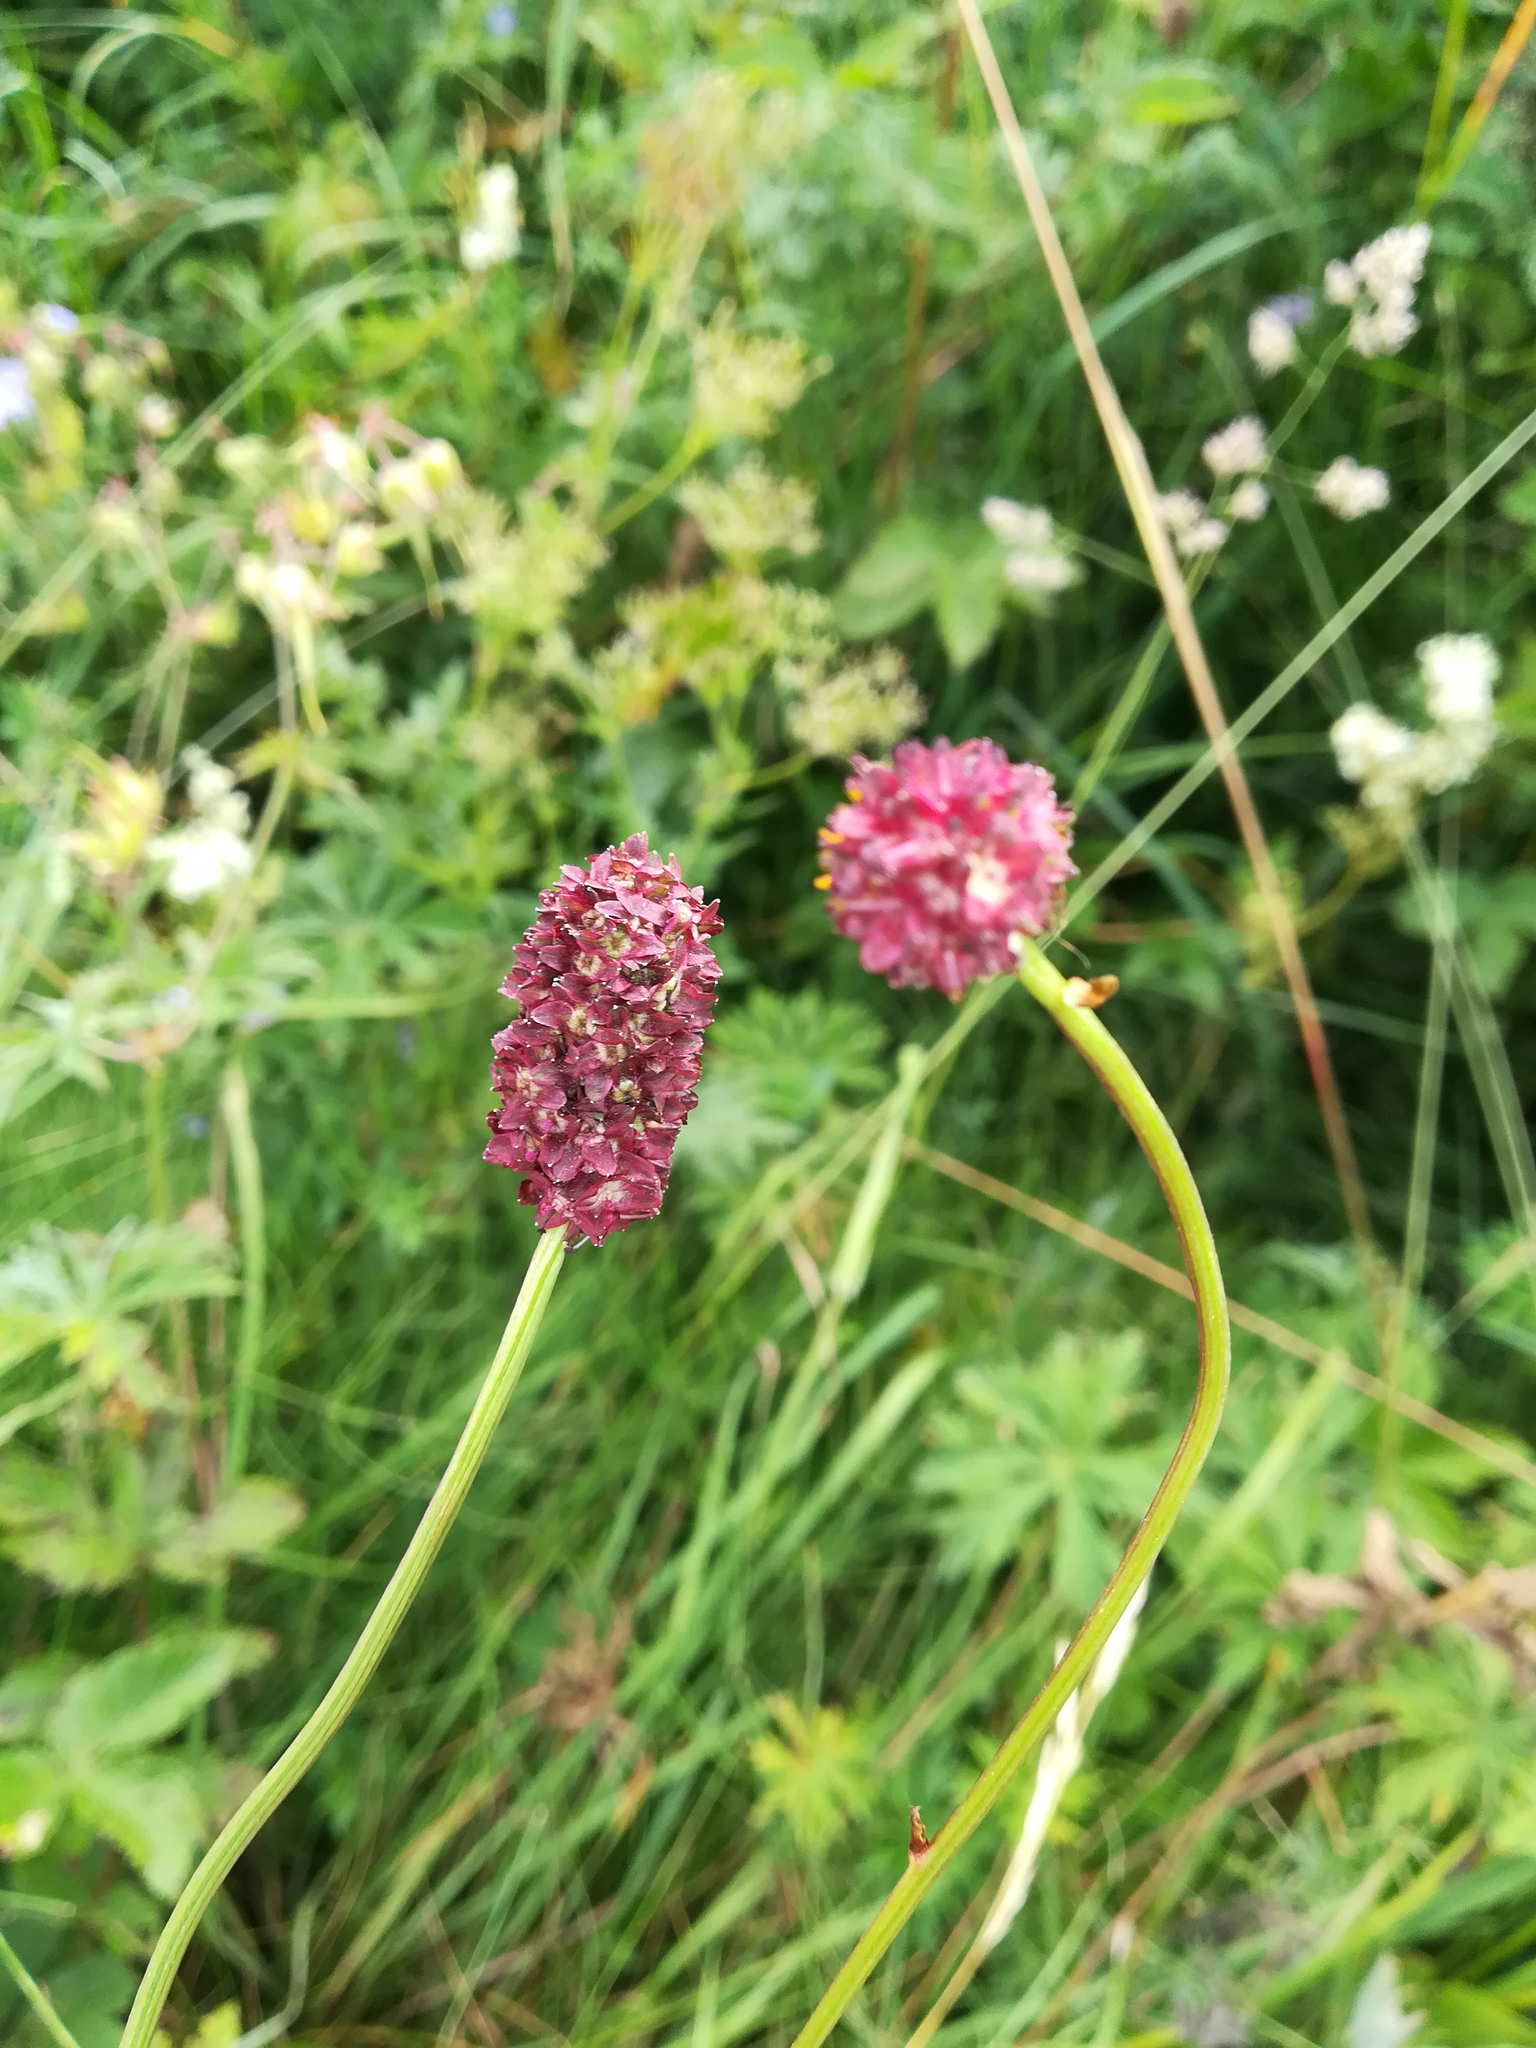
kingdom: Plantae
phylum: Tracheophyta
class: Magnoliopsida
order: Rosales
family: Rosaceae
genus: Sanguisorba
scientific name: Sanguisorba officinalis
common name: Great burnet
